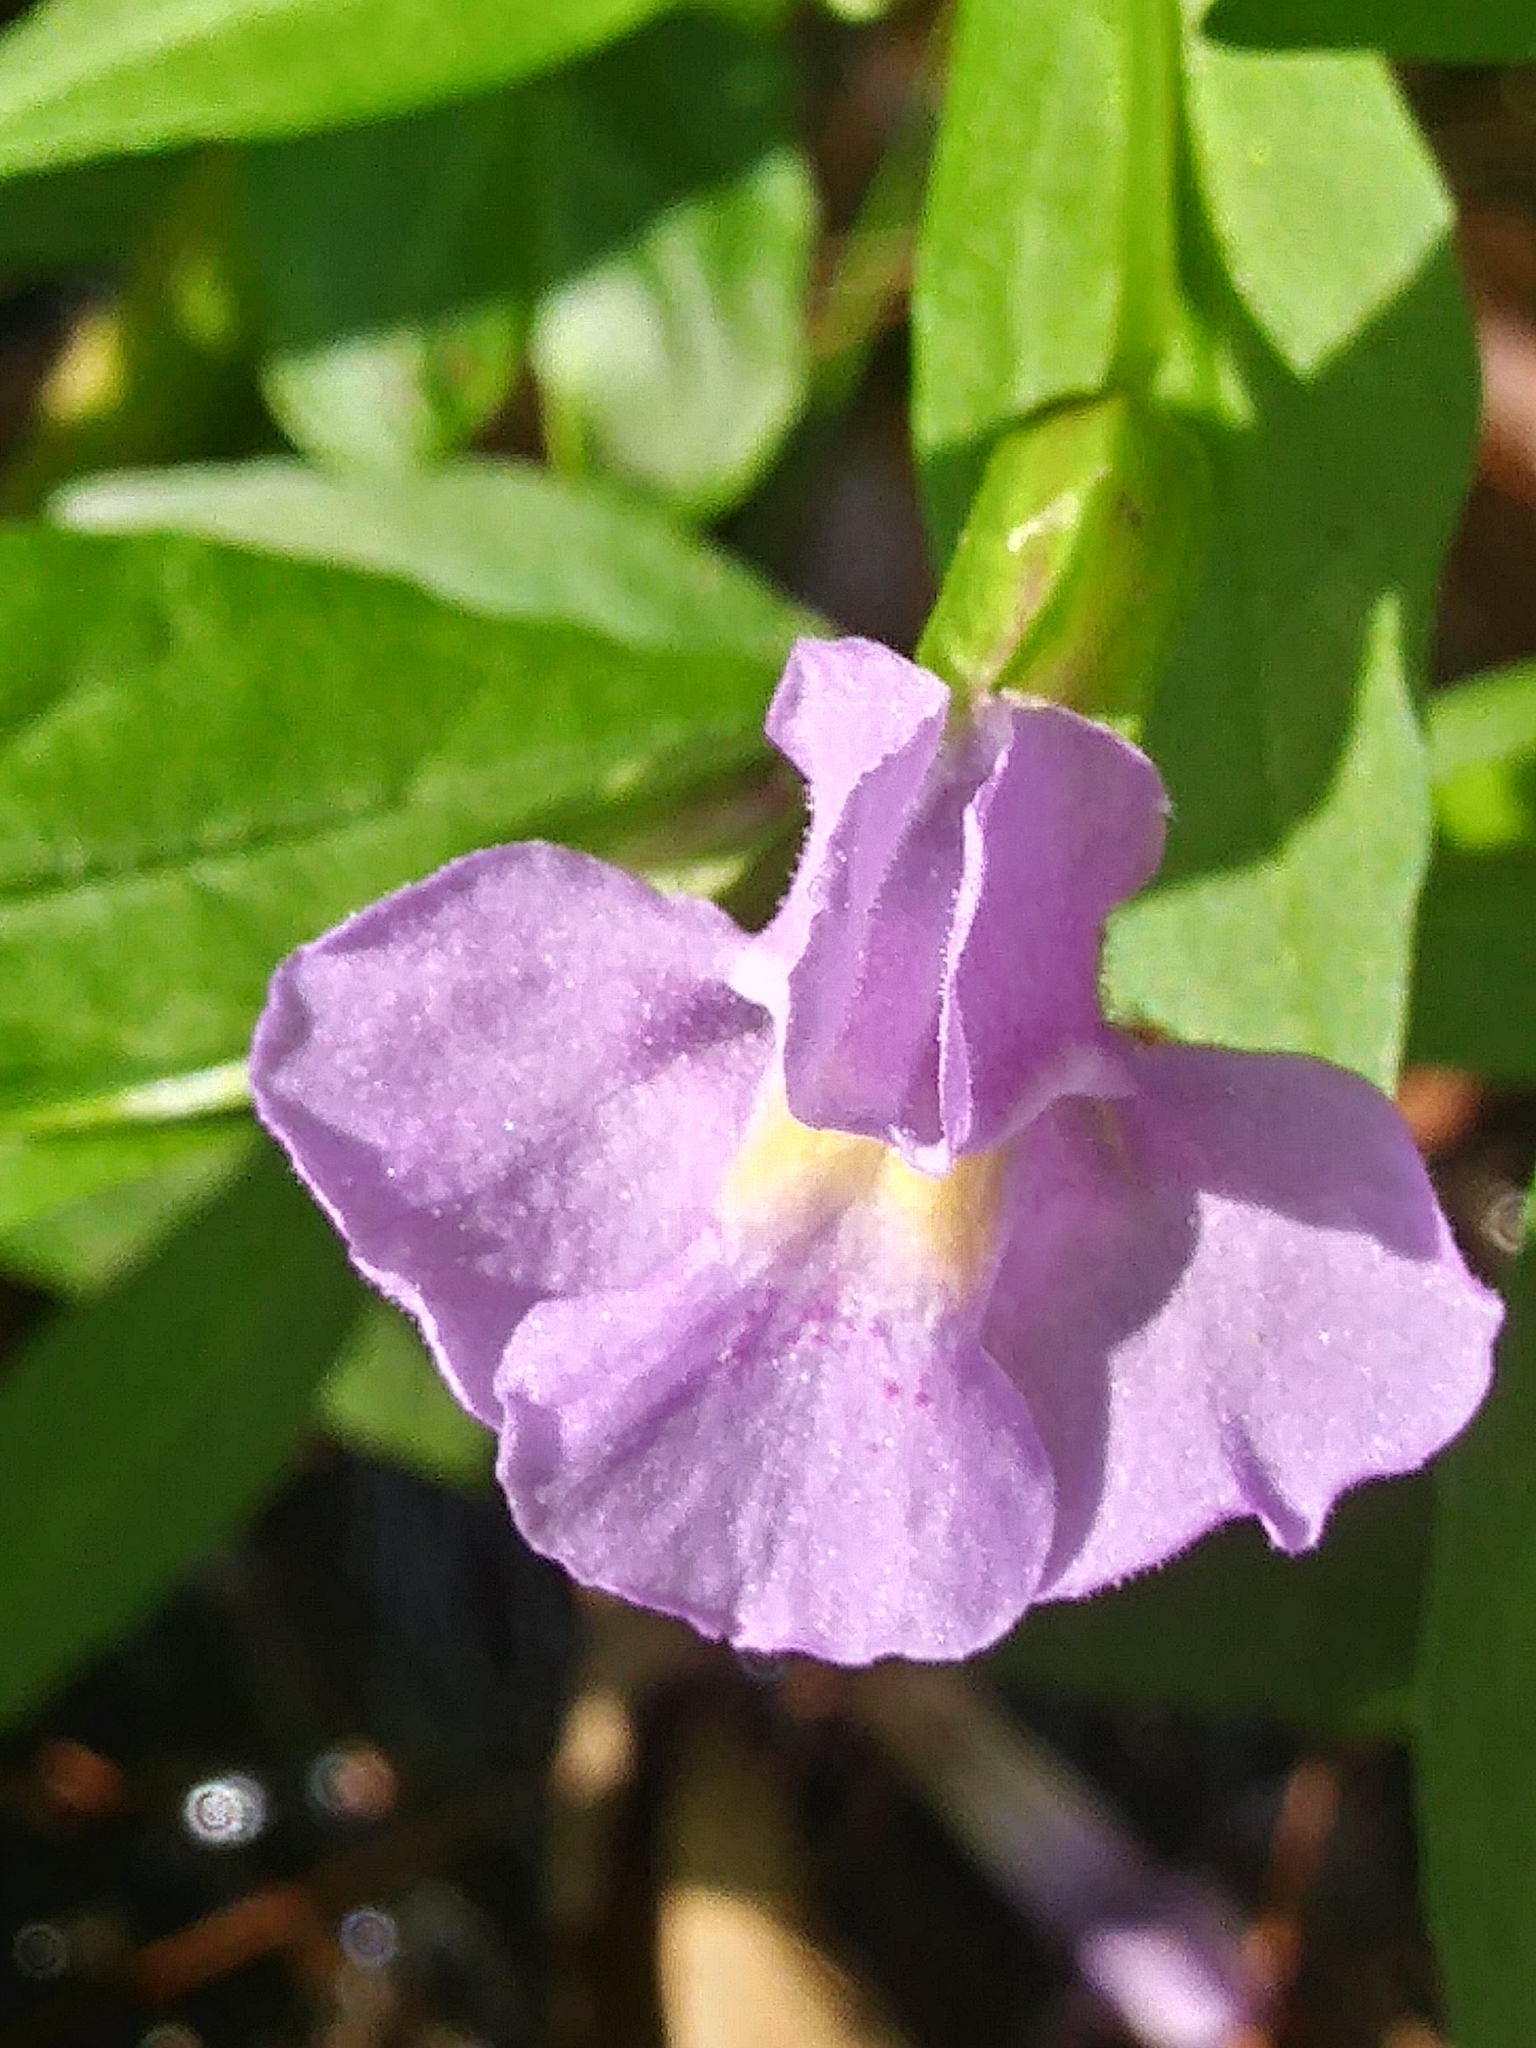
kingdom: Plantae
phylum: Tracheophyta
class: Magnoliopsida
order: Lamiales
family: Phrymaceae
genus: Mimulus
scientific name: Mimulus ringens
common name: Allegheny monkeyflower
